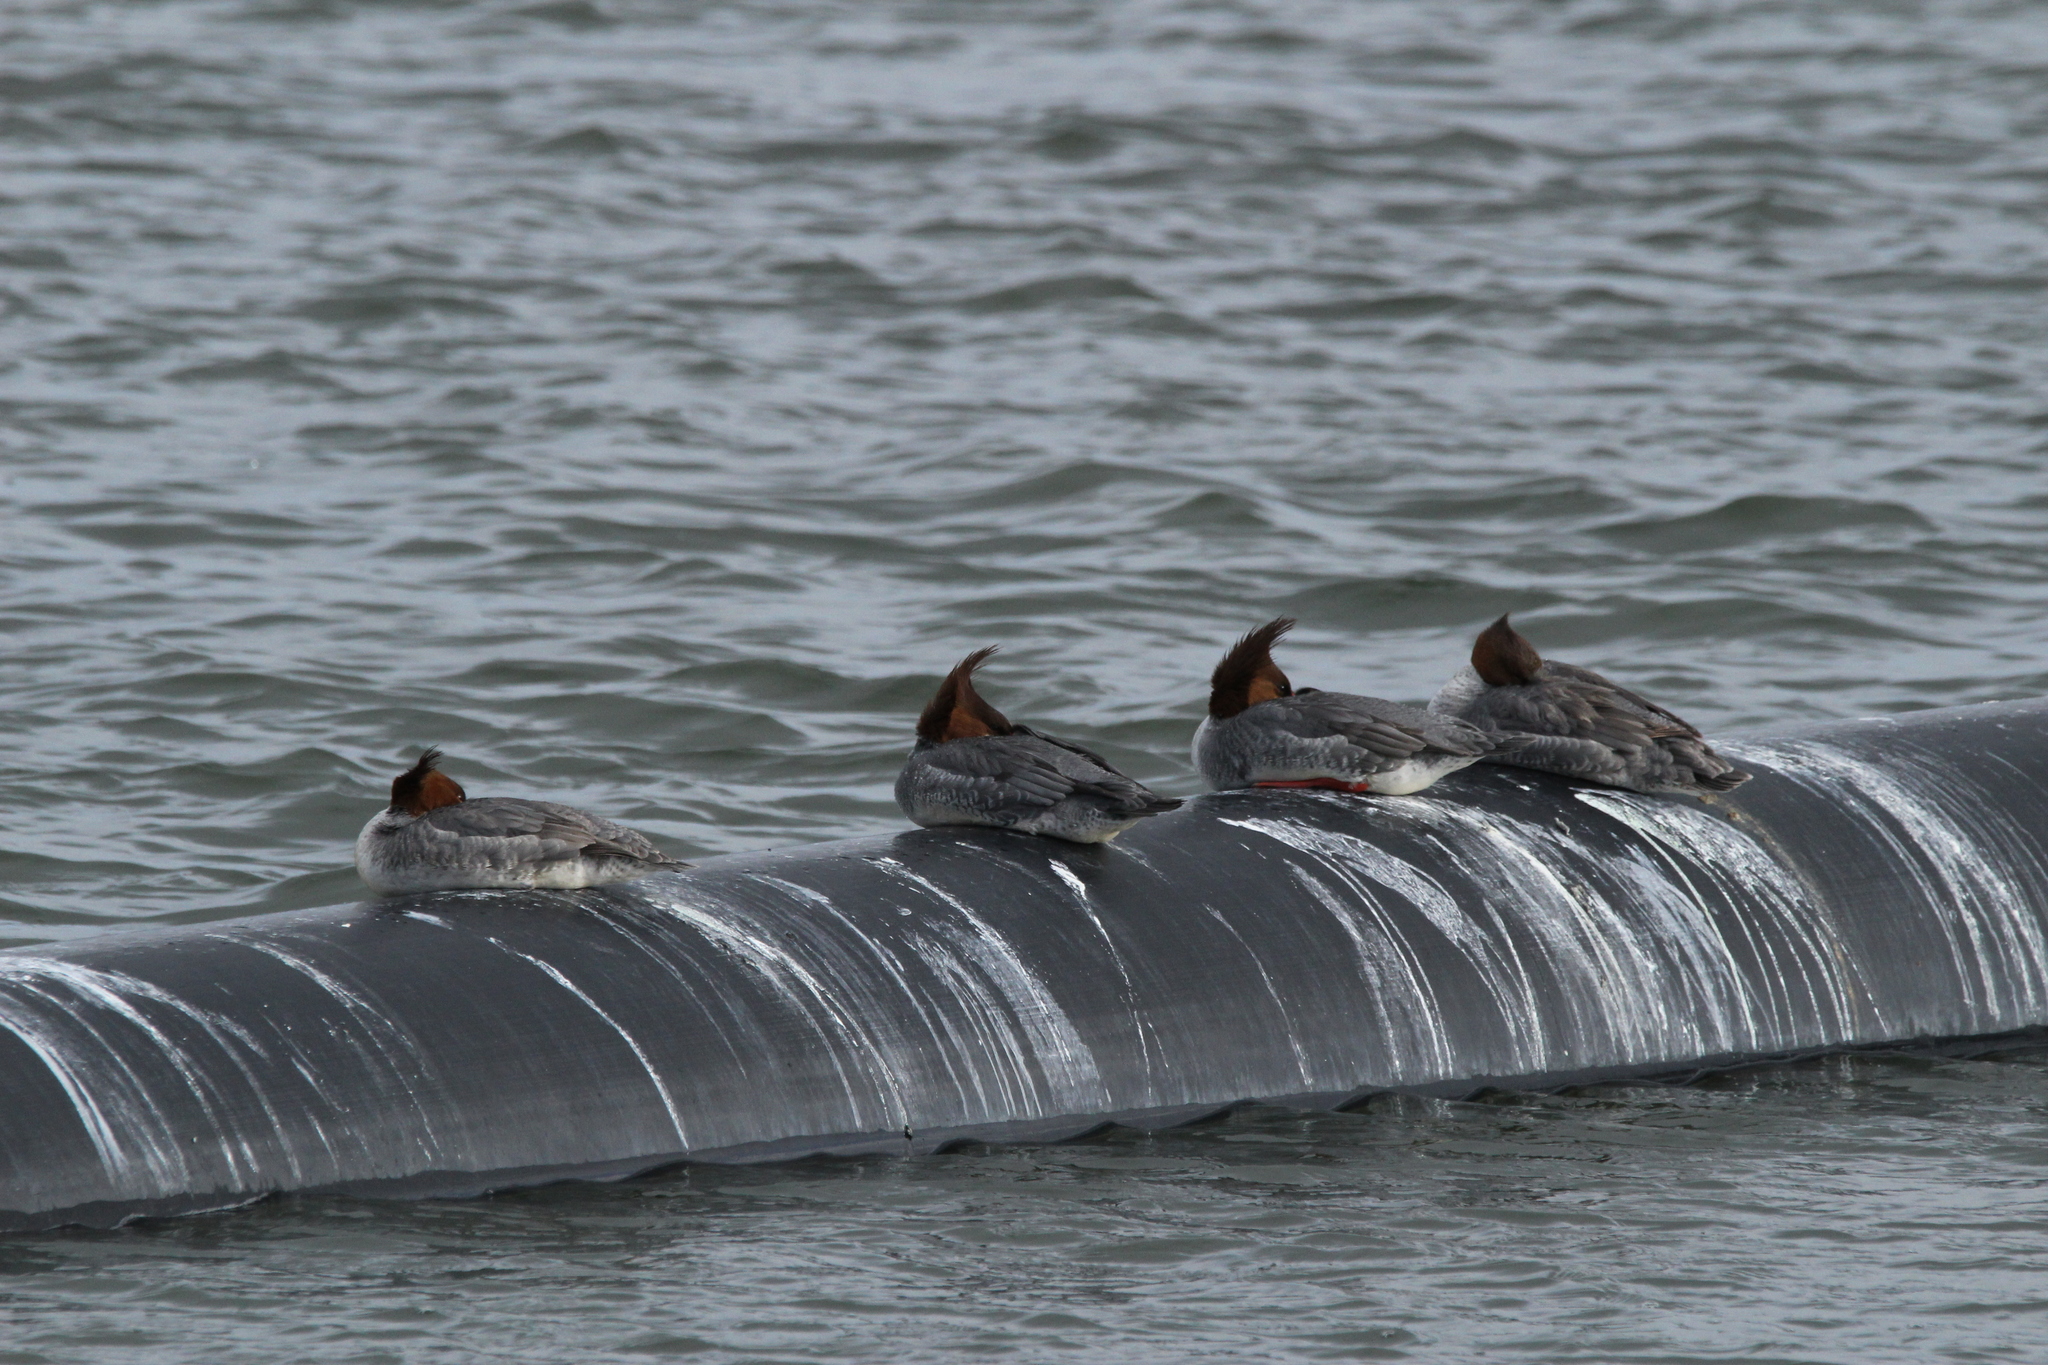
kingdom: Animalia
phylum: Chordata
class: Aves
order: Anseriformes
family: Anatidae
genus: Mergus
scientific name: Mergus merganser
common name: Common merganser
